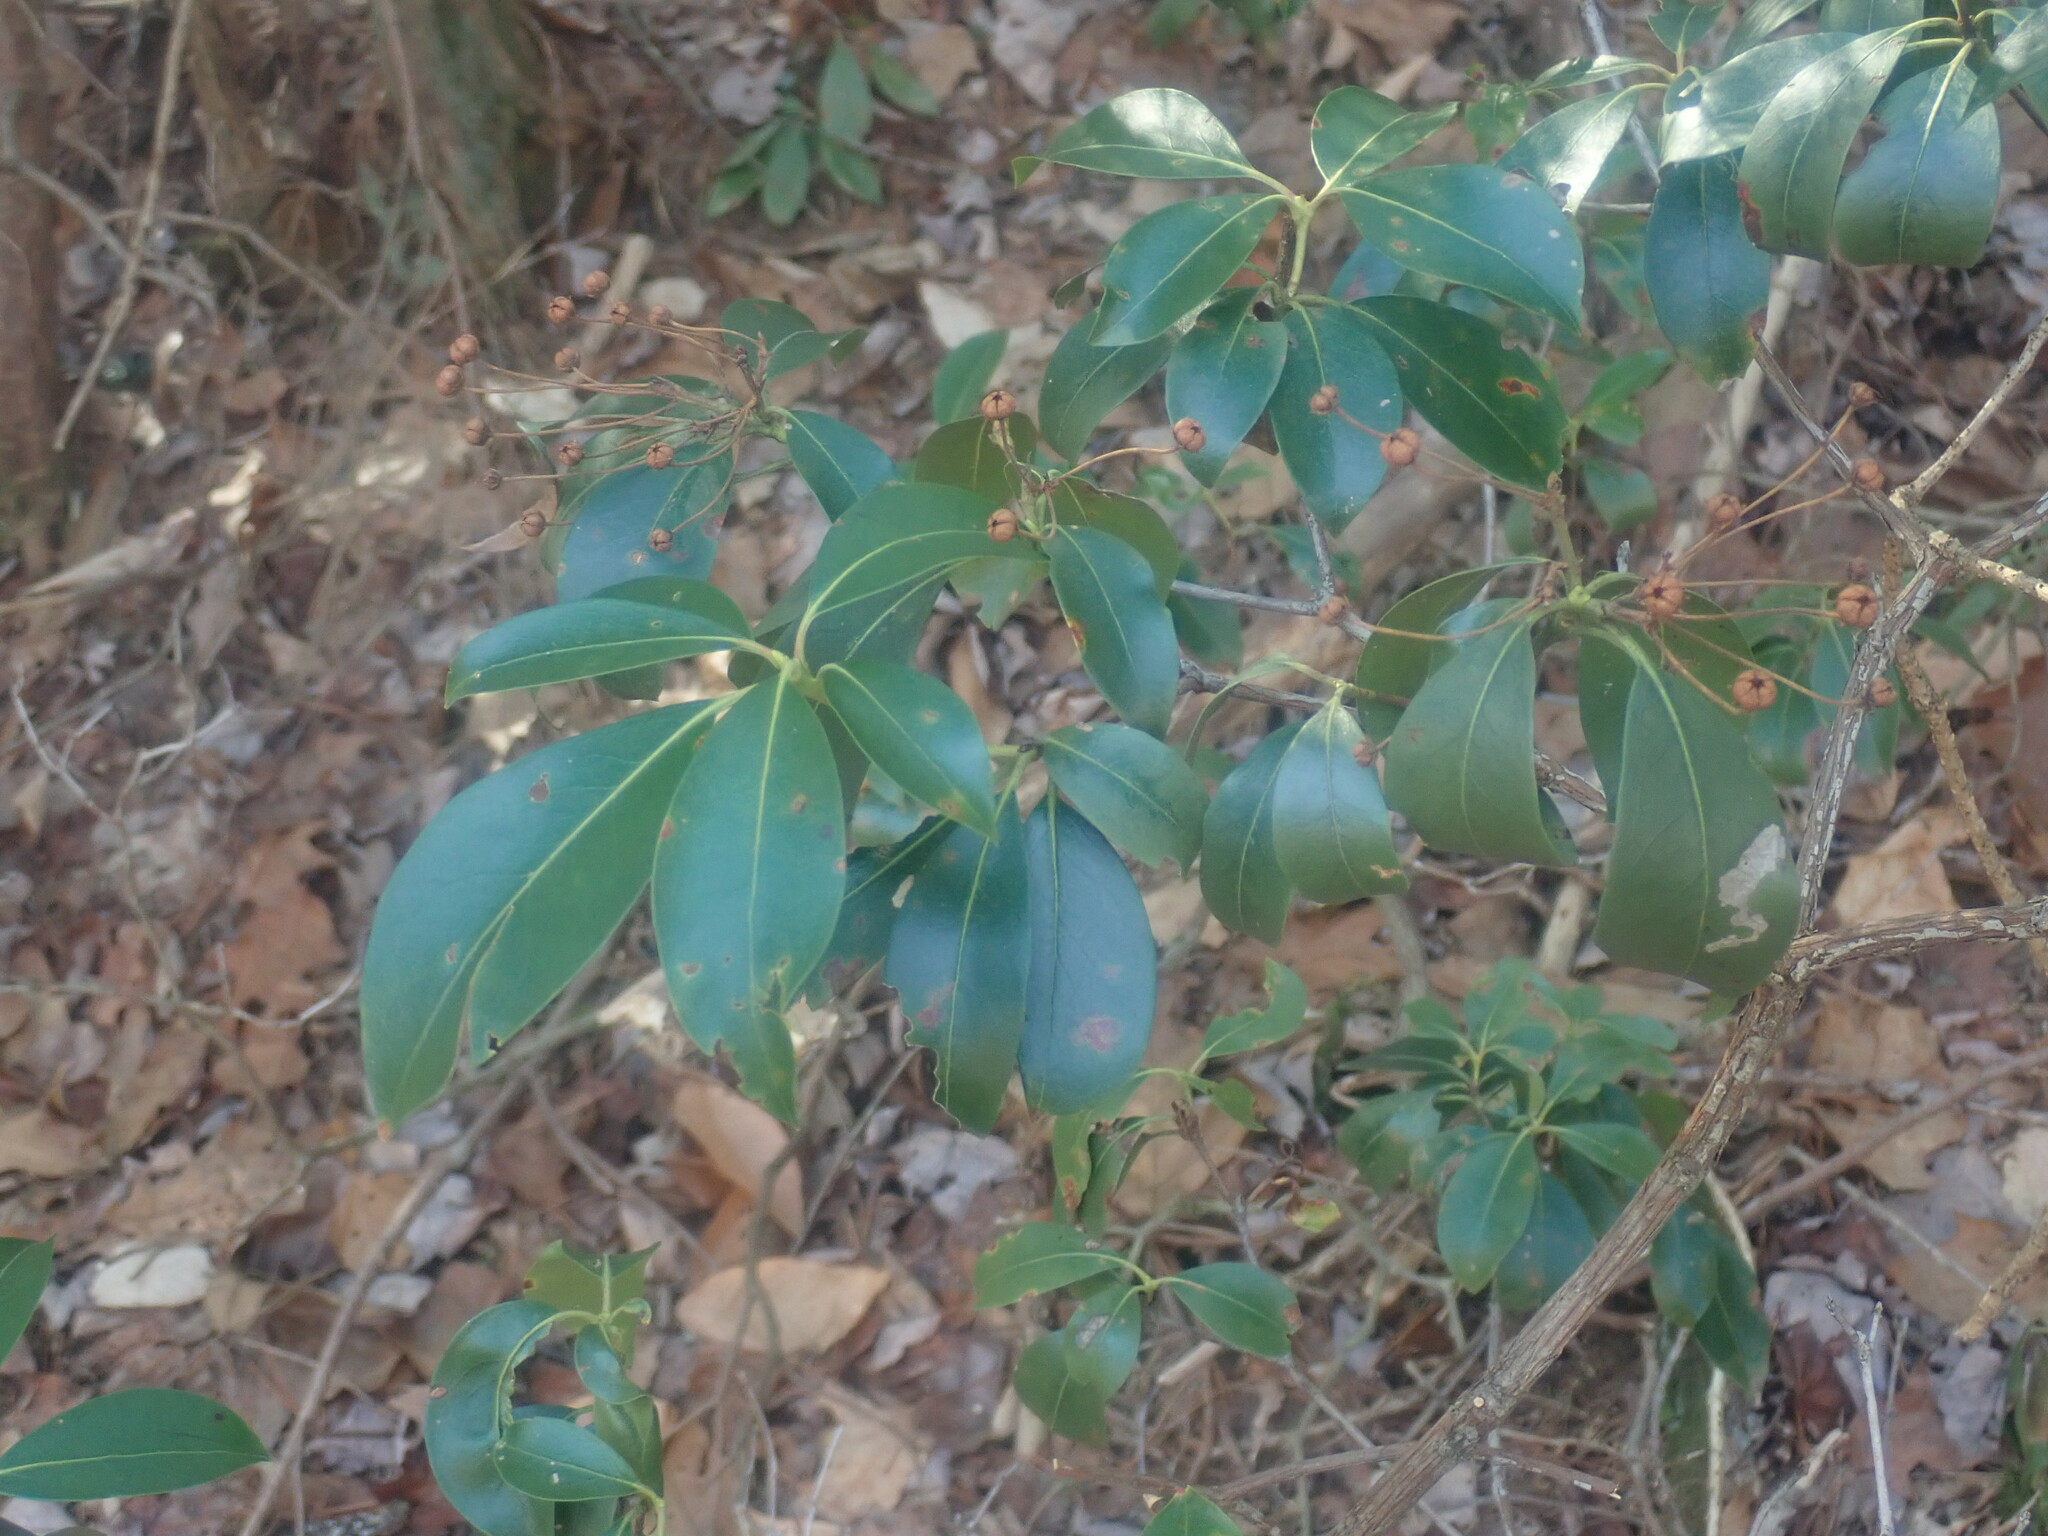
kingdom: Plantae
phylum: Tracheophyta
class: Magnoliopsida
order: Ericales
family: Ericaceae
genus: Kalmia
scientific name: Kalmia latifolia
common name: Mountain-laurel
